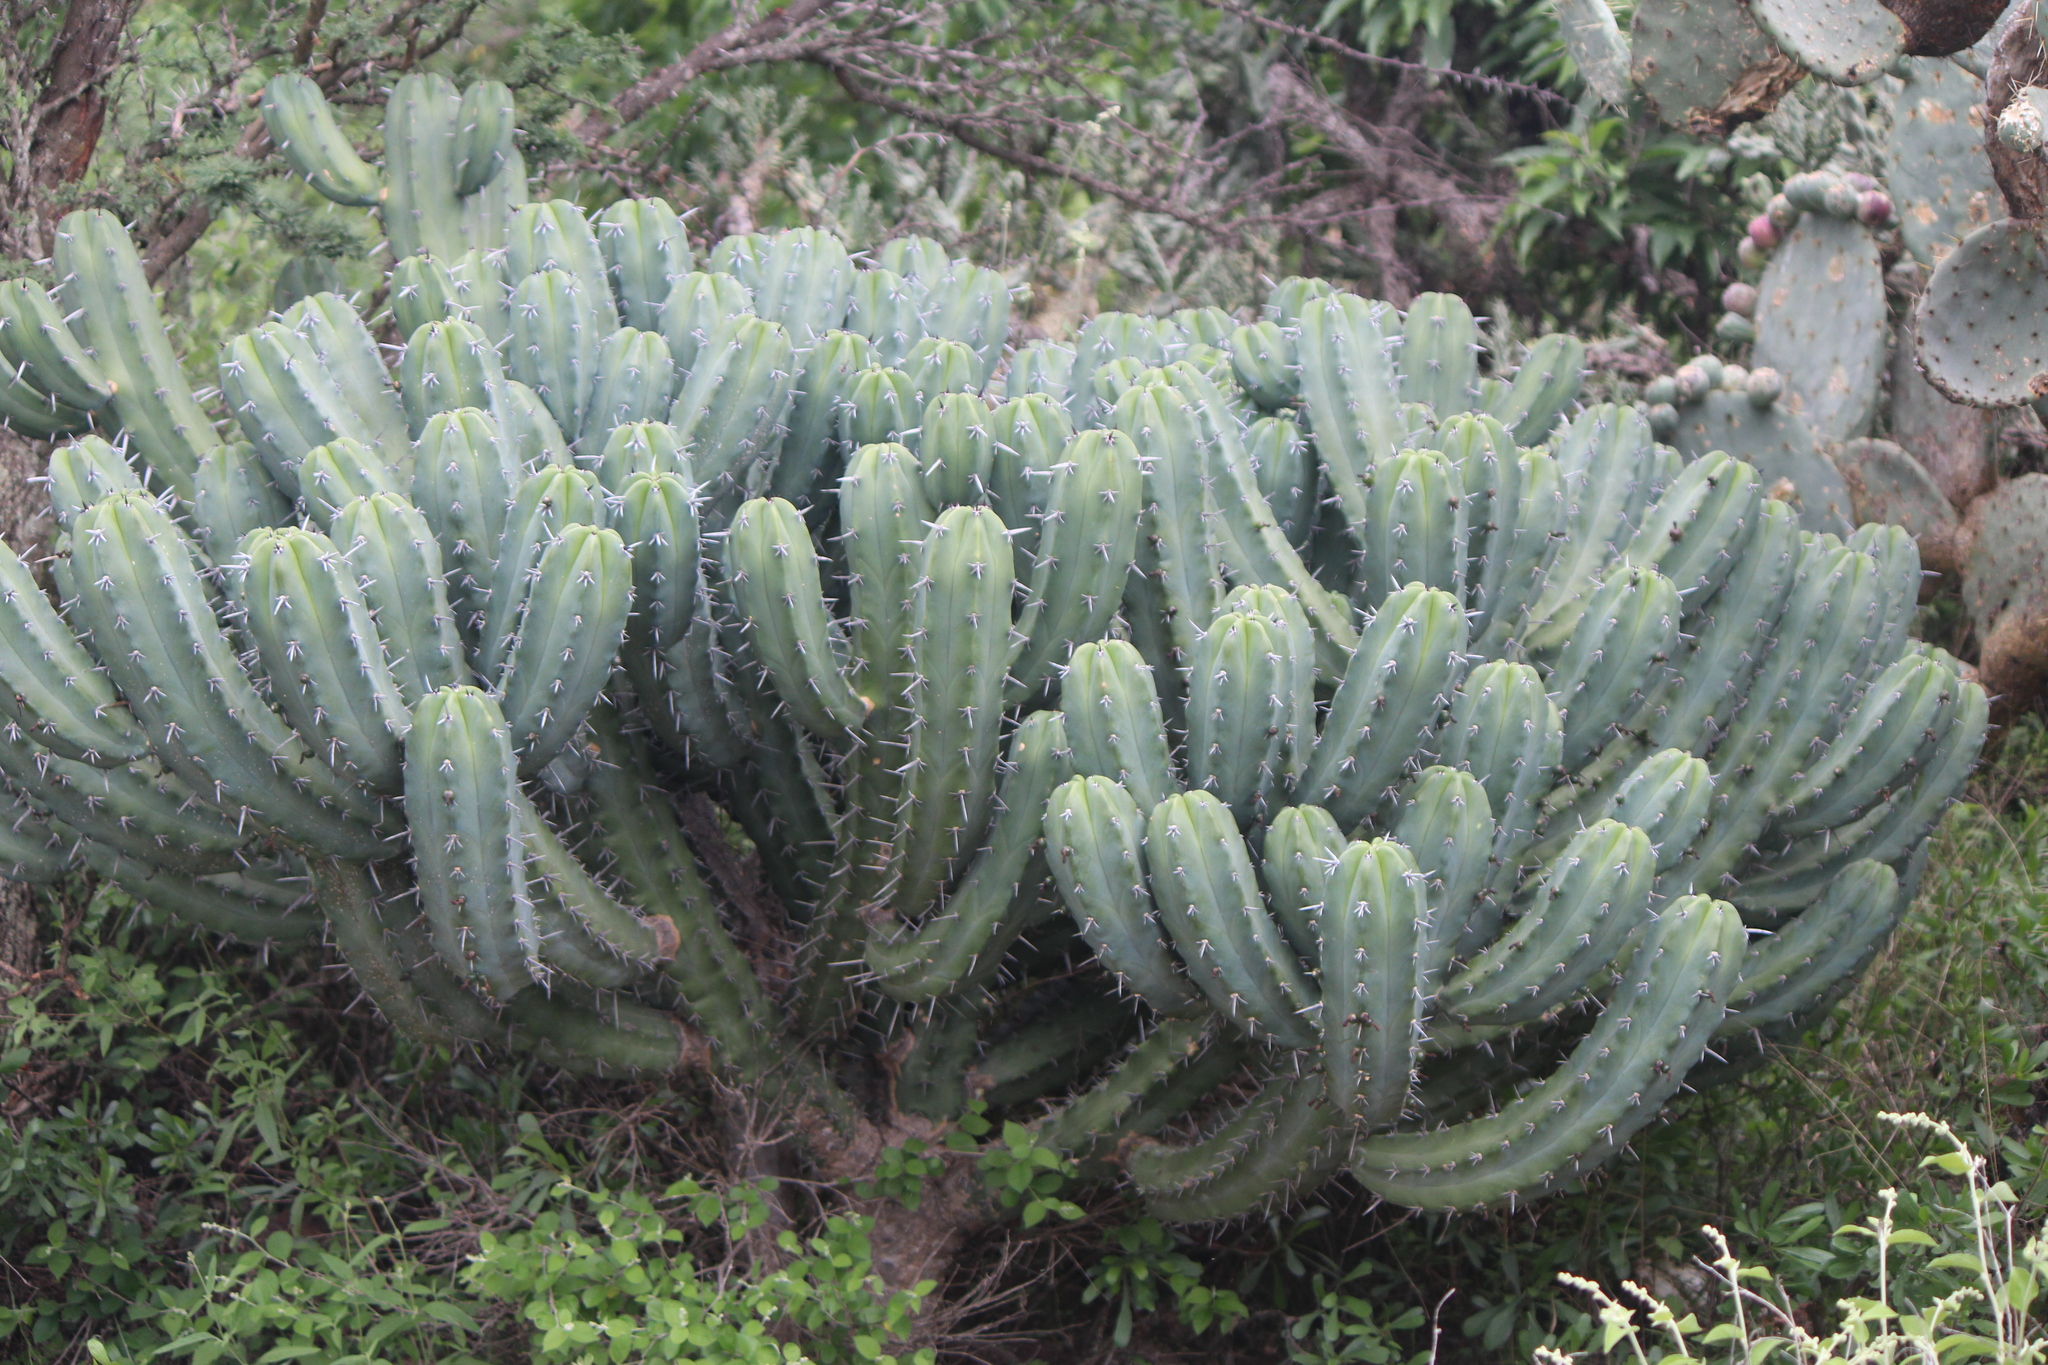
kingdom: Plantae
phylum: Tracheophyta
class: Magnoliopsida
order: Caryophyllales
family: Cactaceae
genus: Myrtillocactus
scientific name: Myrtillocactus geometrizans
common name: Bilberry cactus
